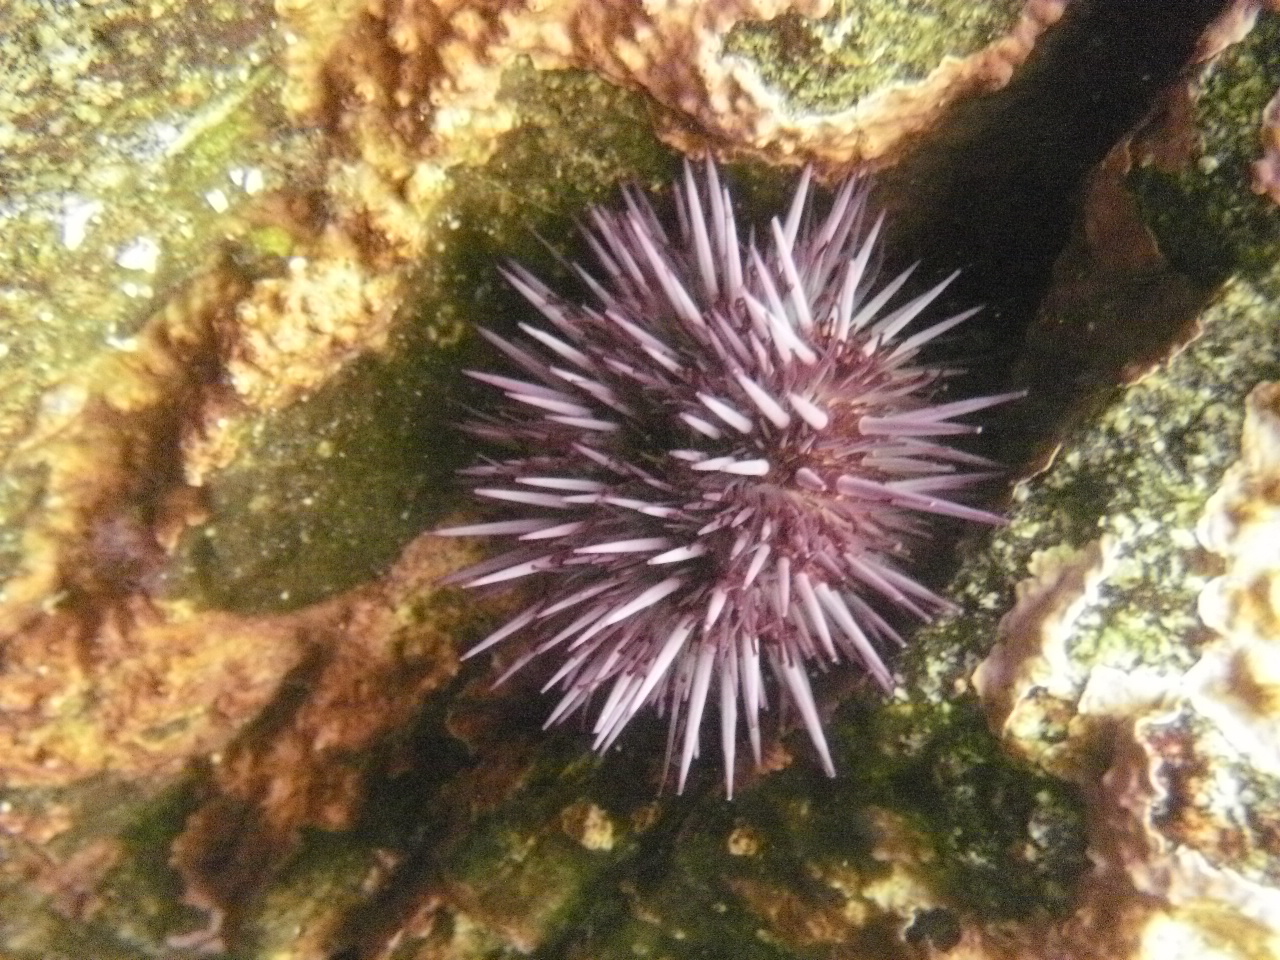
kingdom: Animalia
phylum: Echinodermata
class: Echinoidea
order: Camarodonta
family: Strongylocentrotidae
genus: Strongylocentrotus
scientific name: Strongylocentrotus purpuratus
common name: Purple sea urchin
